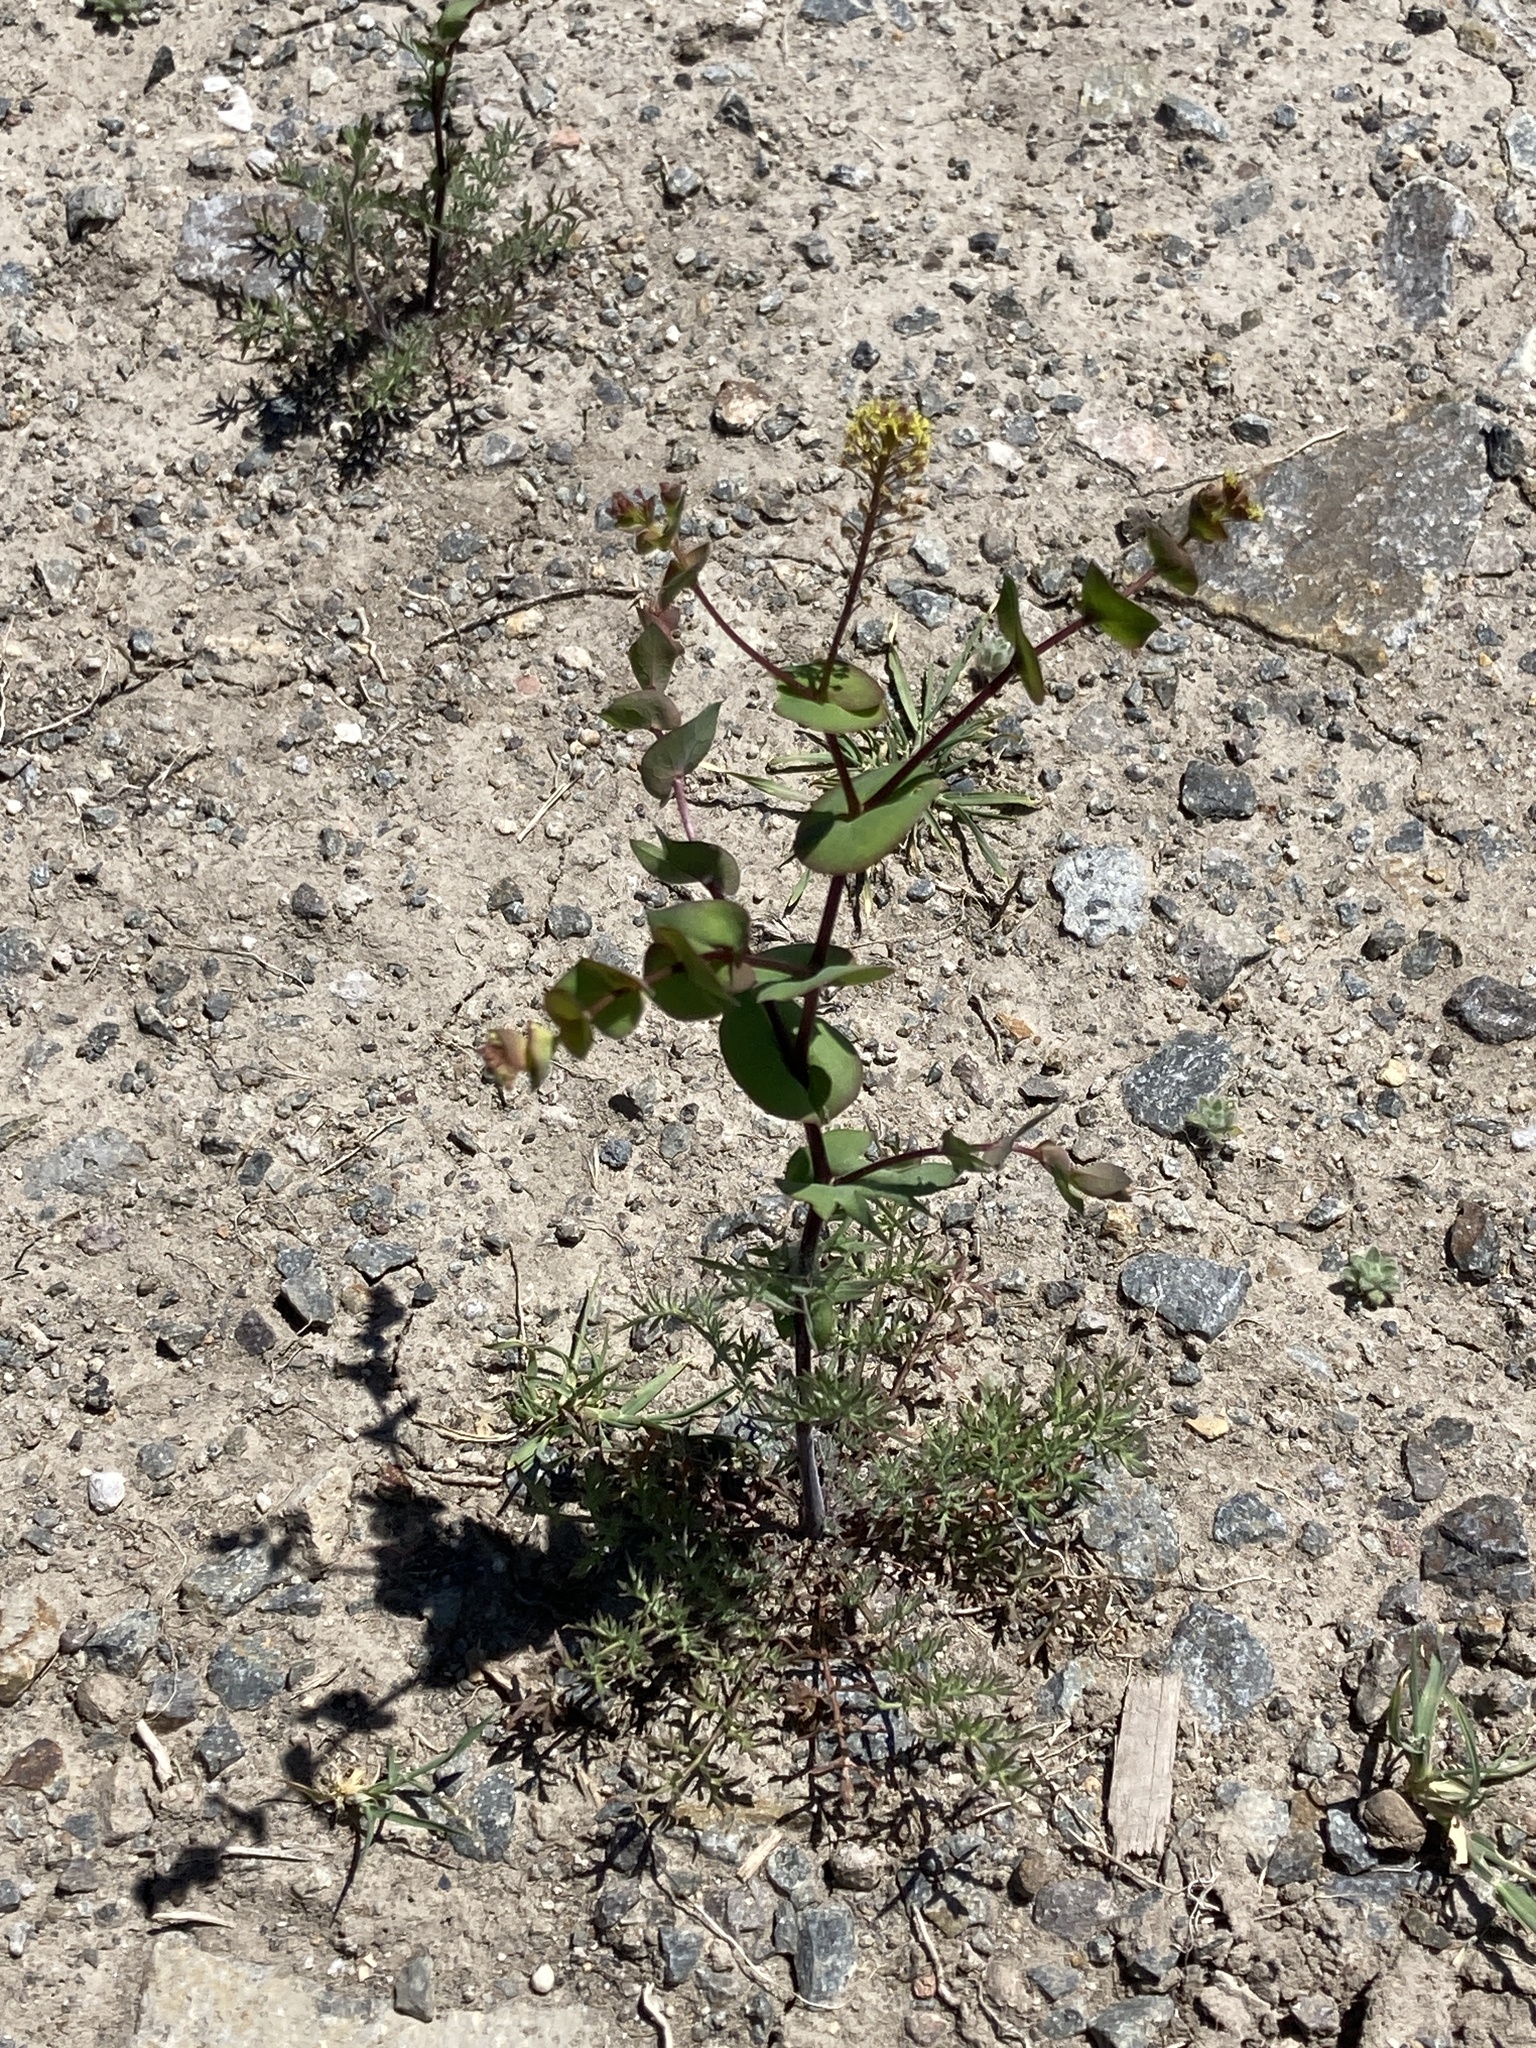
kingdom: Plantae
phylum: Tracheophyta
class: Magnoliopsida
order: Brassicales
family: Brassicaceae
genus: Lepidium
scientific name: Lepidium perfoliatum
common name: Perfoliate pepperwort
